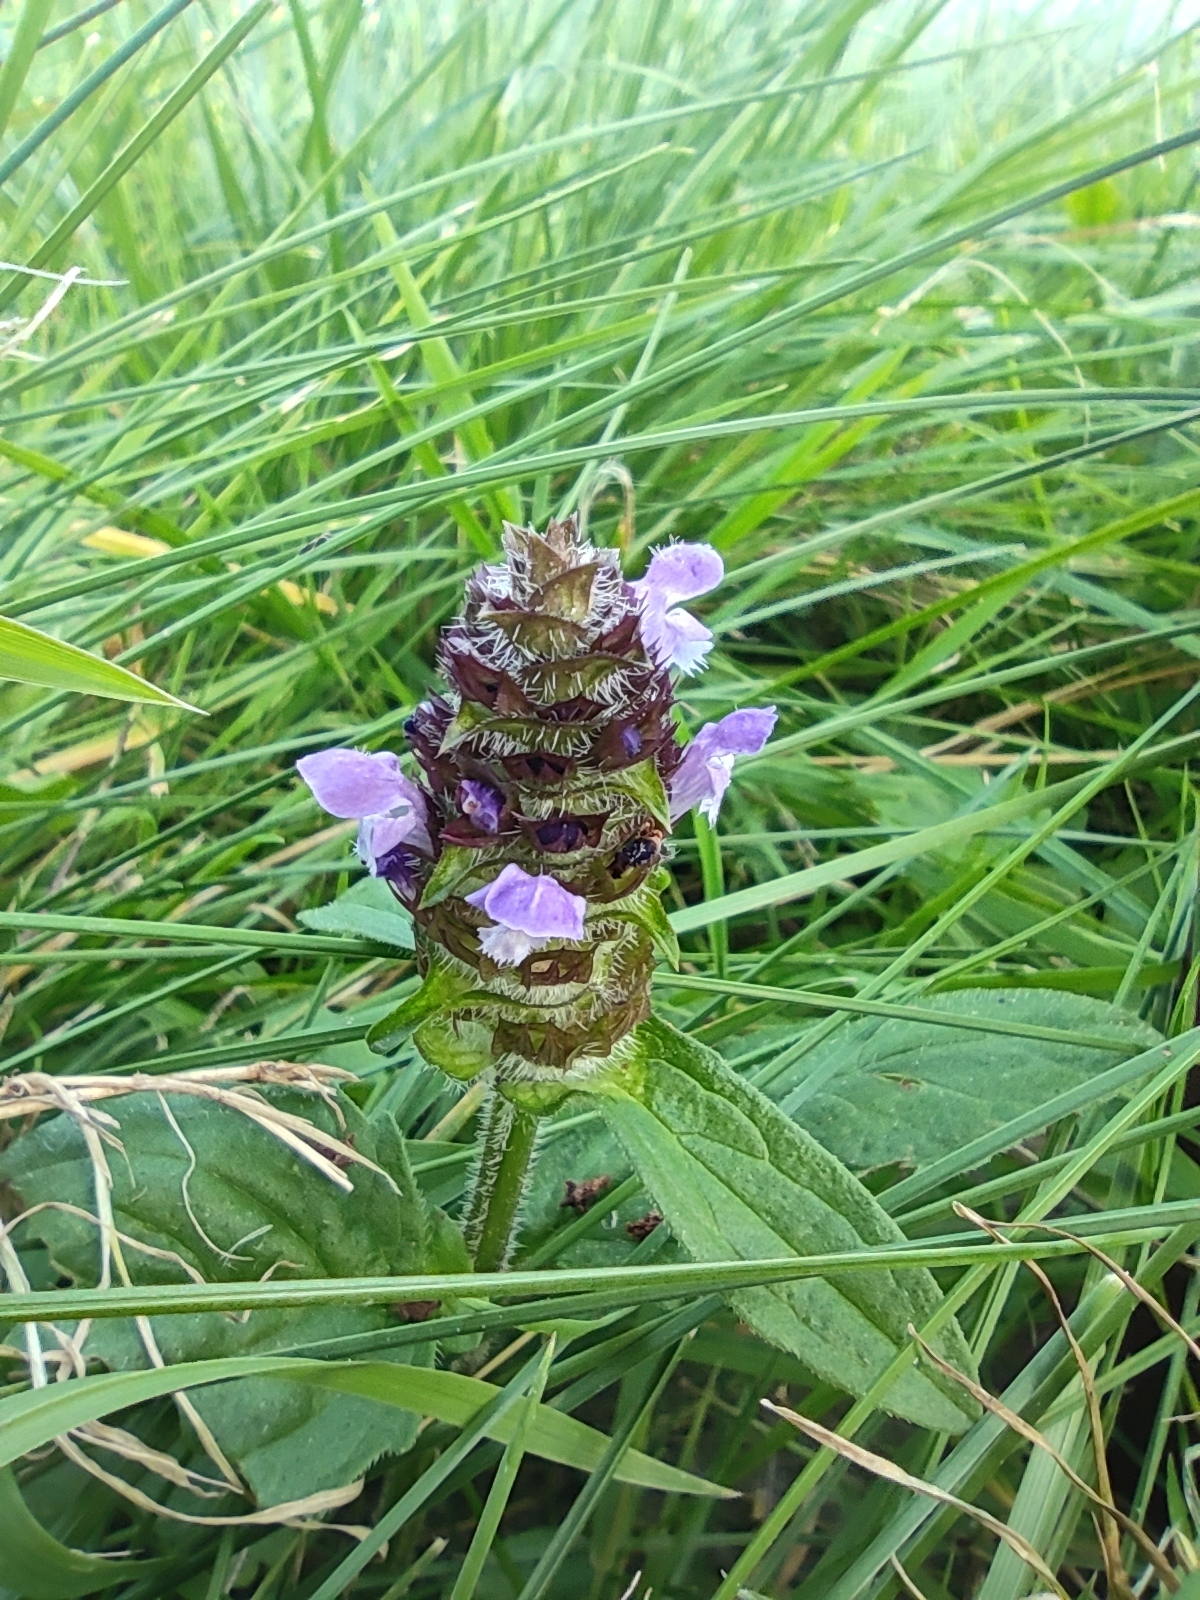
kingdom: Plantae
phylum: Tracheophyta
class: Magnoliopsida
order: Lamiales
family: Lamiaceae
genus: Prunella
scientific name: Prunella vulgaris
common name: Heal-all
